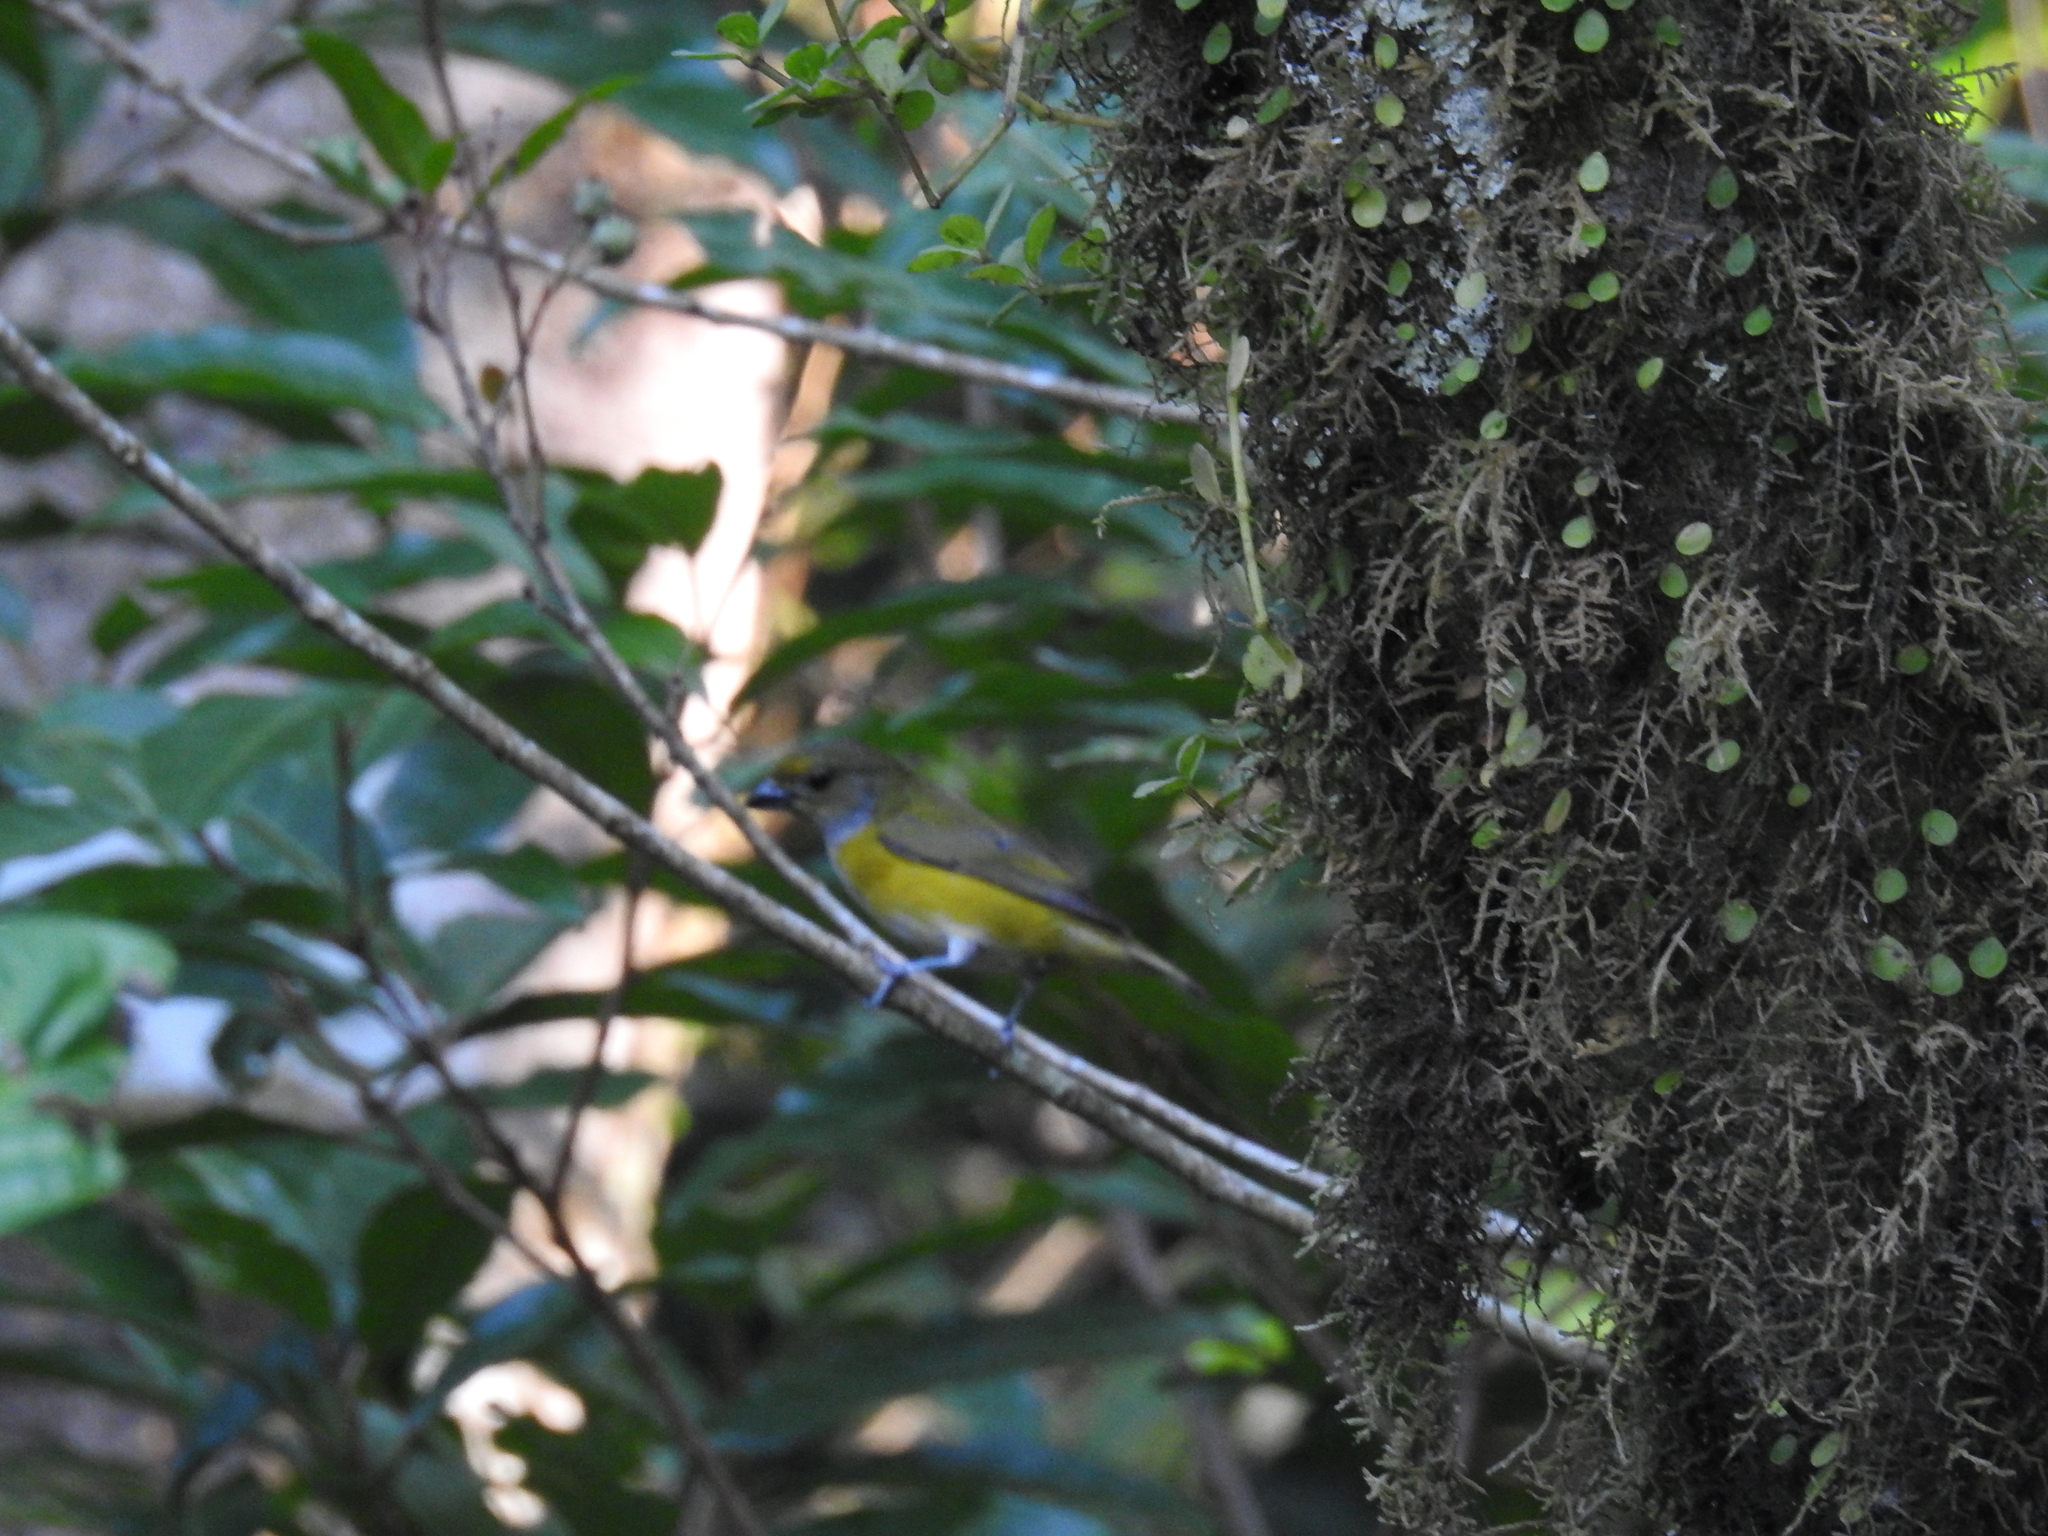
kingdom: Animalia
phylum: Chordata
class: Aves
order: Passeriformes
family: Fringillidae
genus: Euphonia
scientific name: Euphonia hirundinacea
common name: Yellow-throated euphonia
